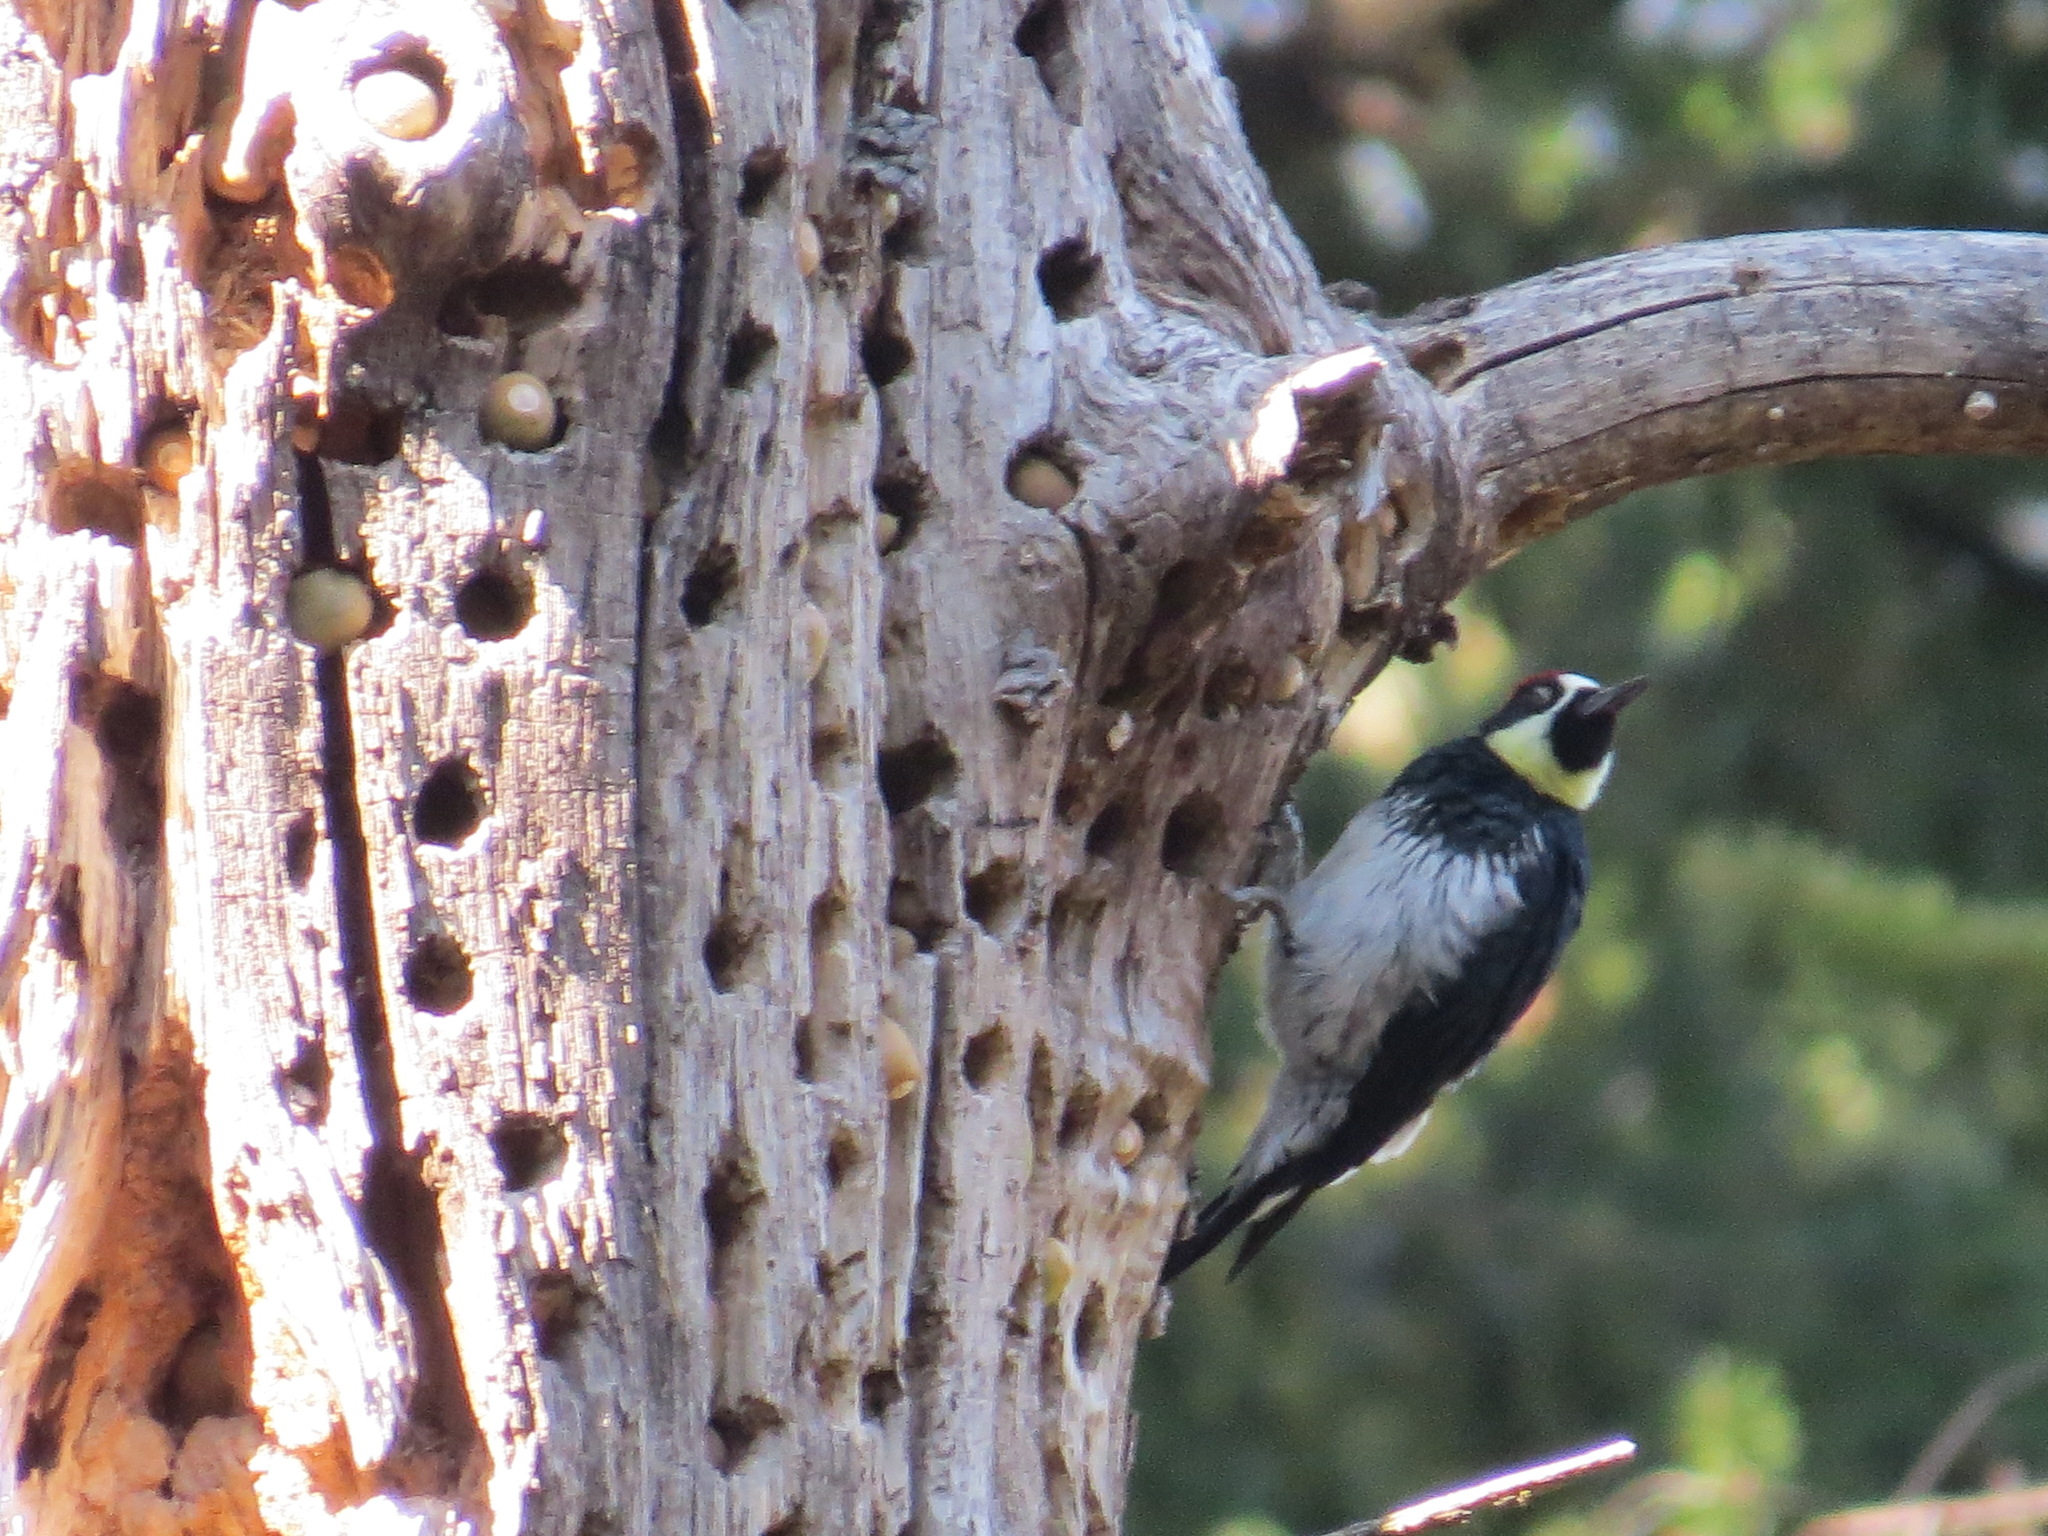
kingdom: Animalia
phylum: Chordata
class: Aves
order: Piciformes
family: Picidae
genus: Melanerpes
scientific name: Melanerpes formicivorus
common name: Acorn woodpecker
